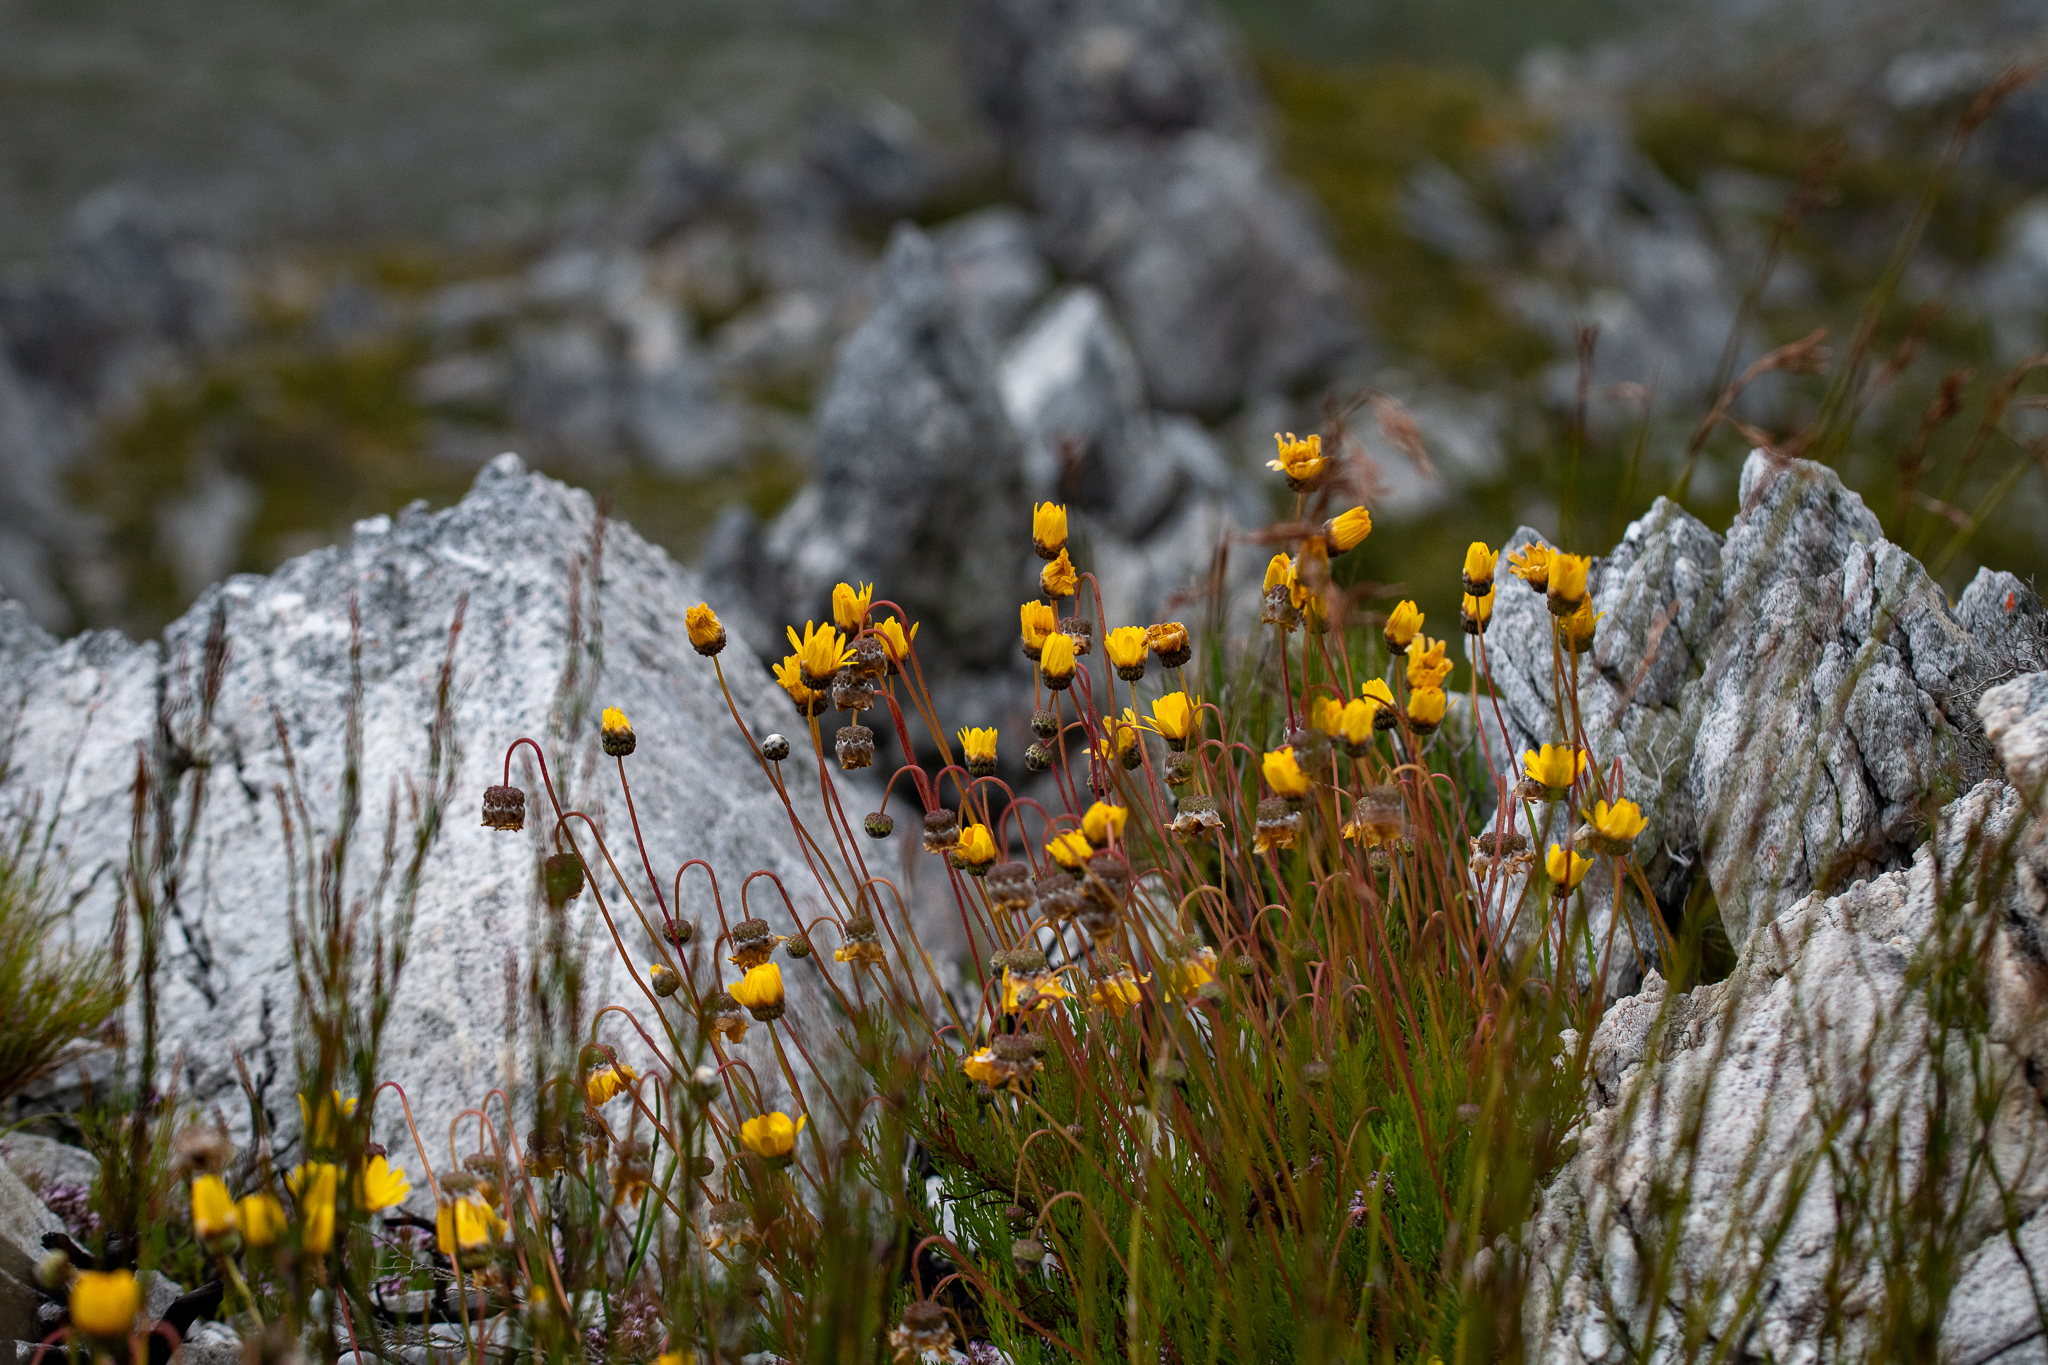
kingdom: Plantae
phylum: Tracheophyta
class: Magnoliopsida
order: Asterales
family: Asteraceae
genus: Ursinia
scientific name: Ursinia paleacea
